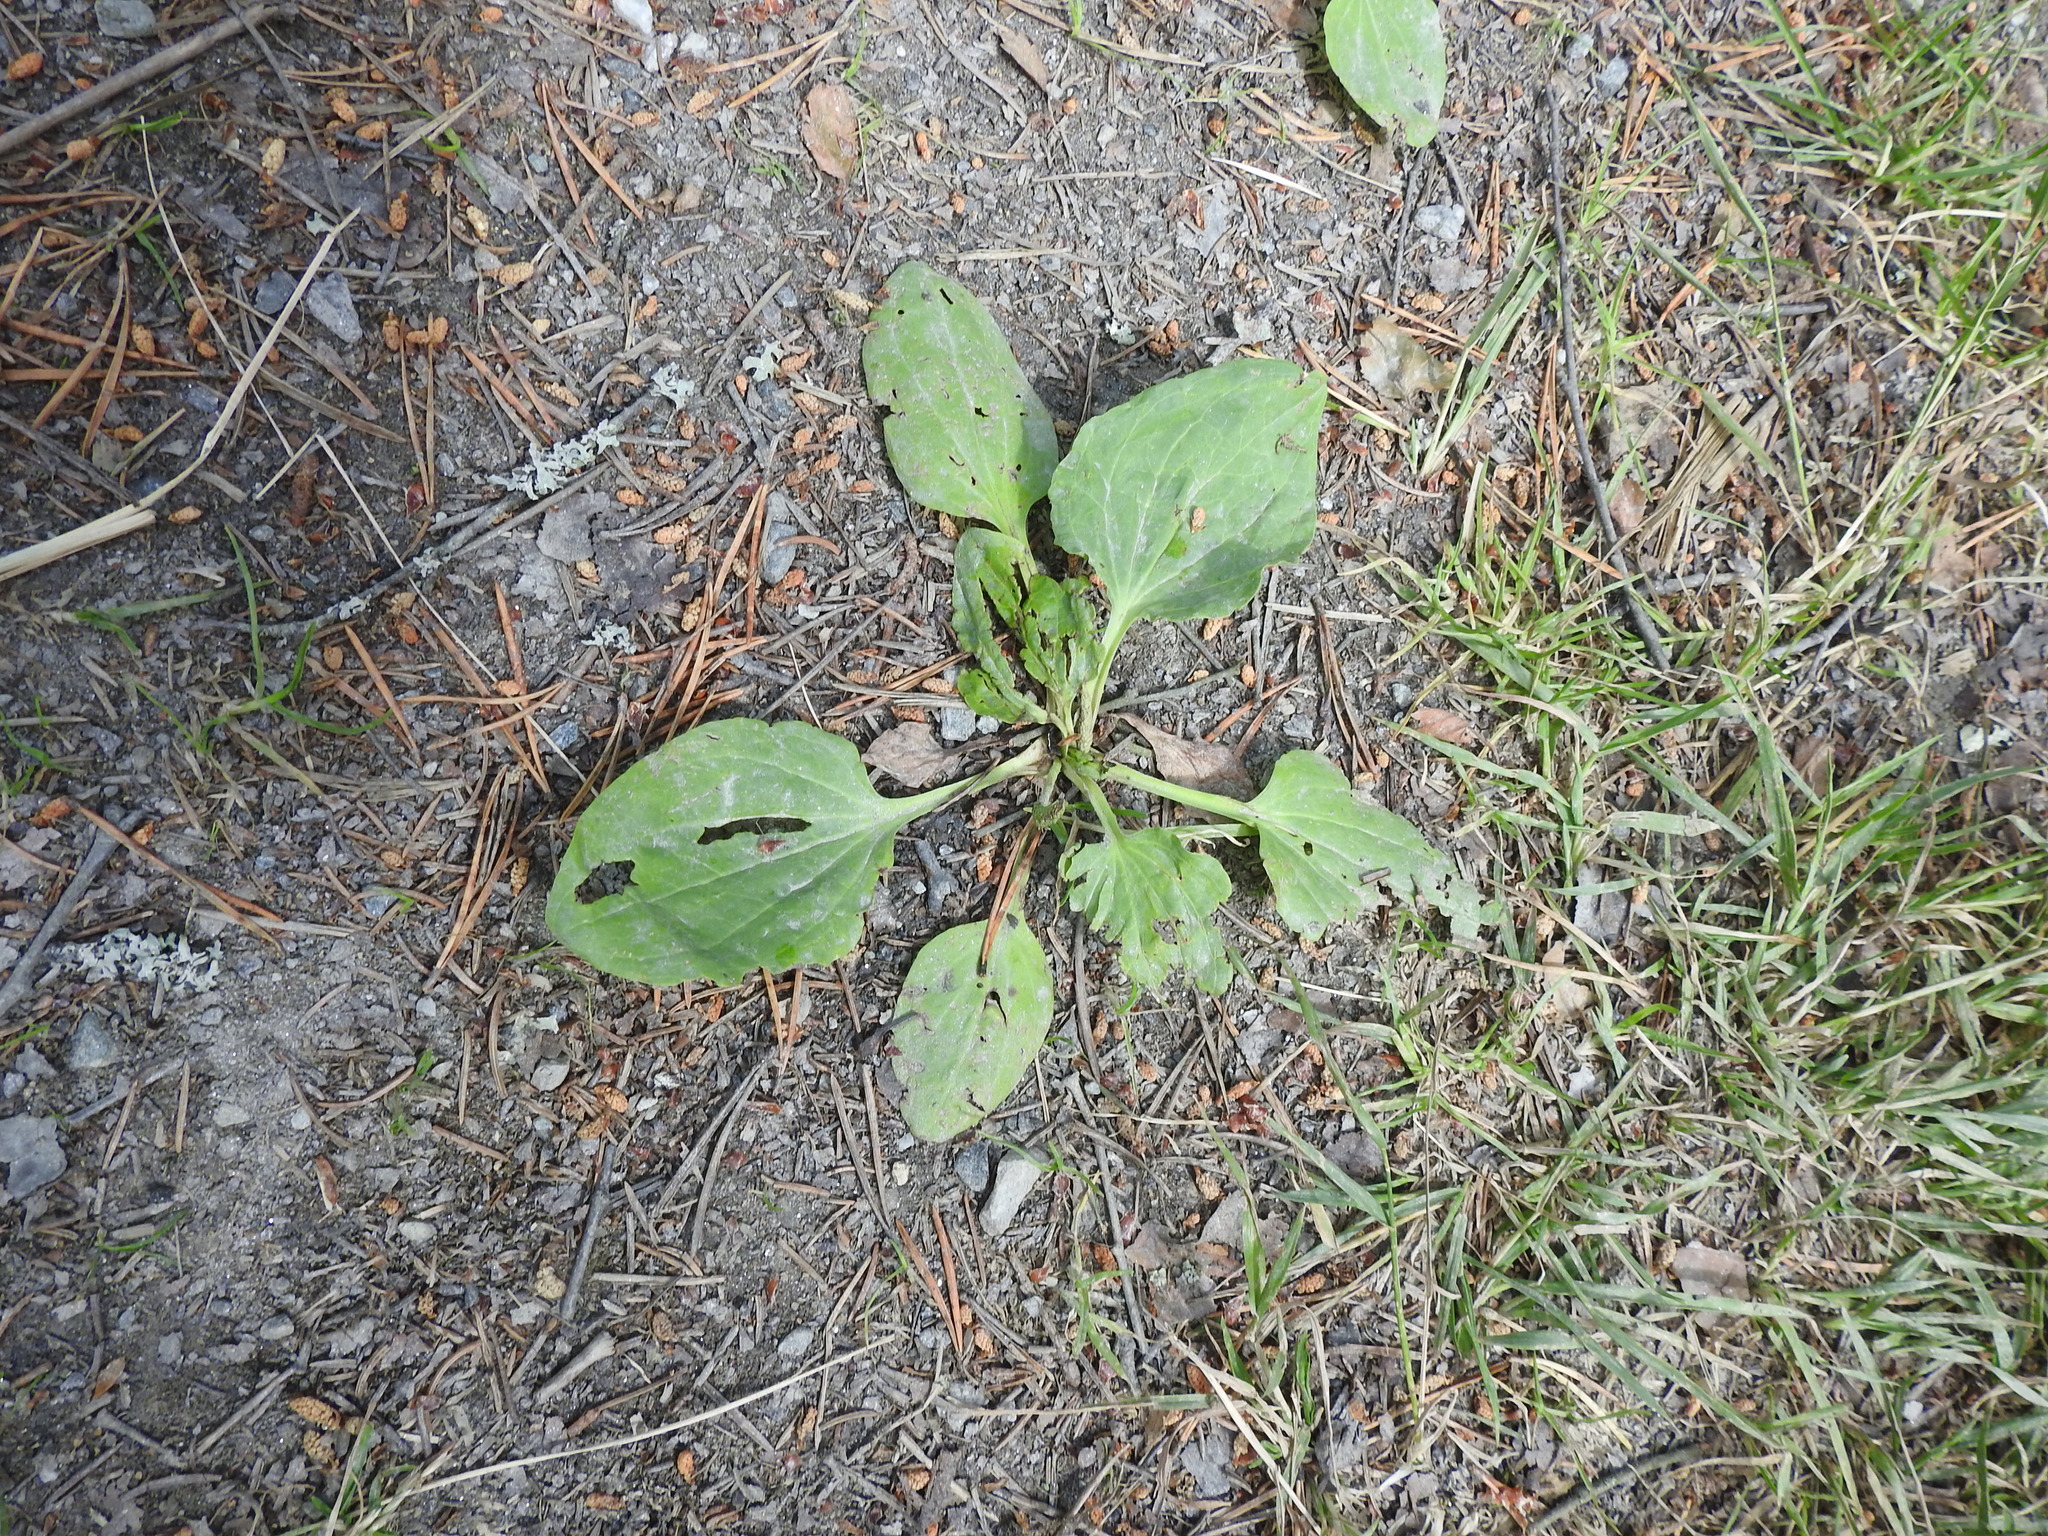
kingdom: Plantae
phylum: Tracheophyta
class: Magnoliopsida
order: Lamiales
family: Plantaginaceae
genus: Plantago
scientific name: Plantago major
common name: Common plantain
